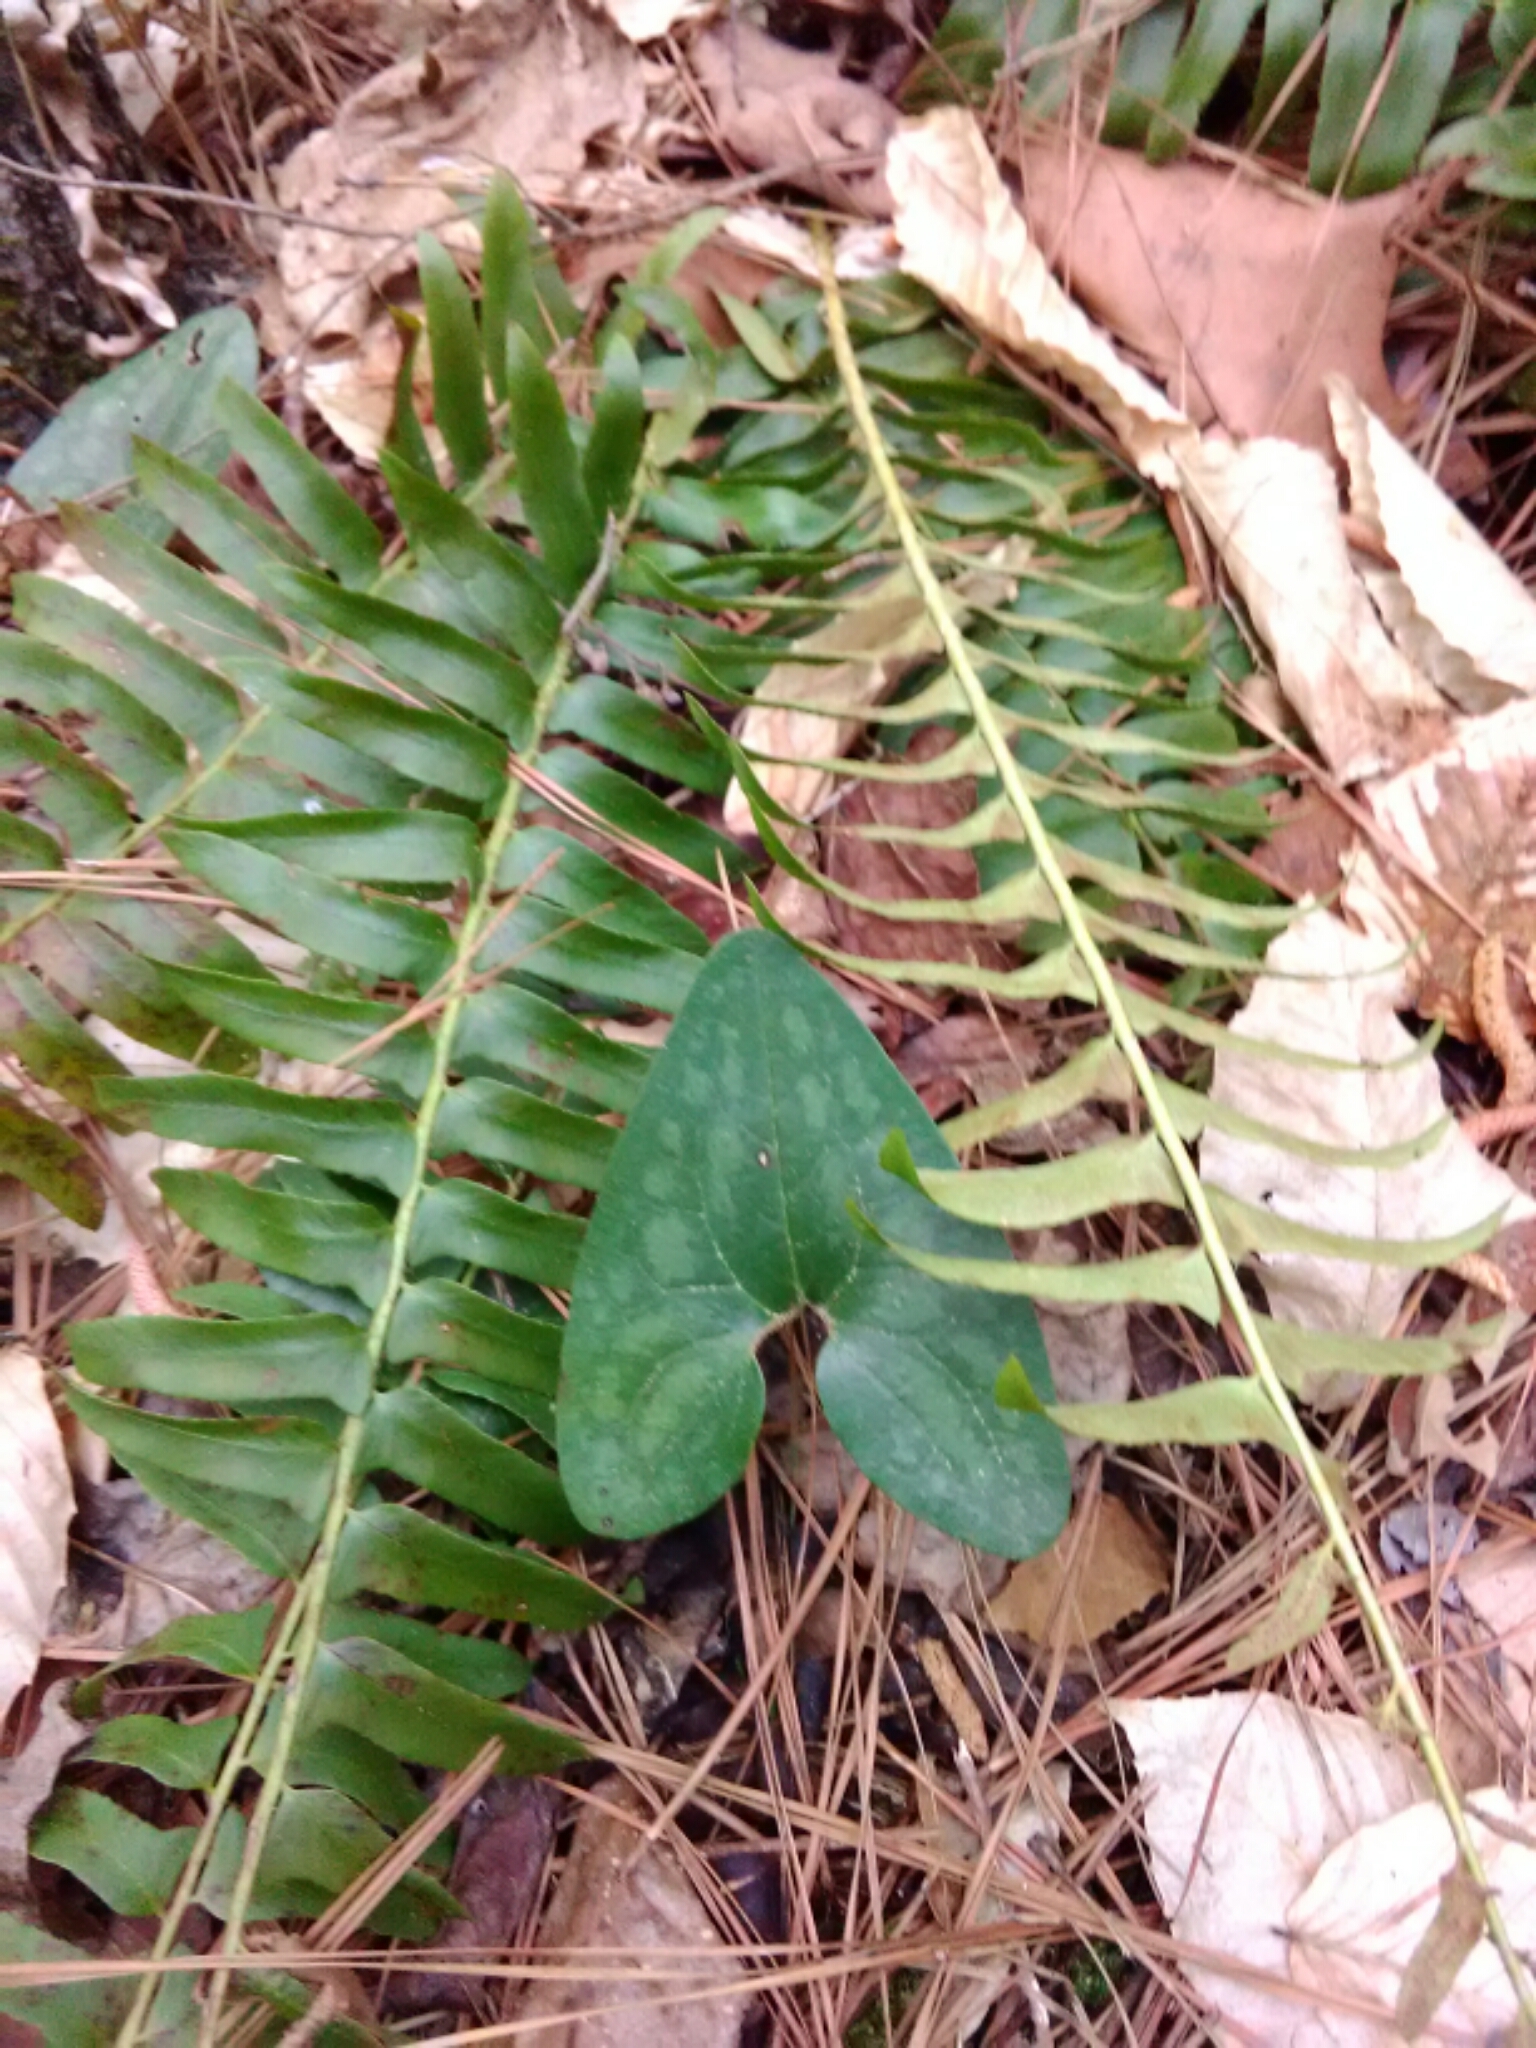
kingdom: Plantae
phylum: Tracheophyta
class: Magnoliopsida
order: Piperales
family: Aristolochiaceae
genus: Hexastylis
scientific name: Hexastylis arifolia
